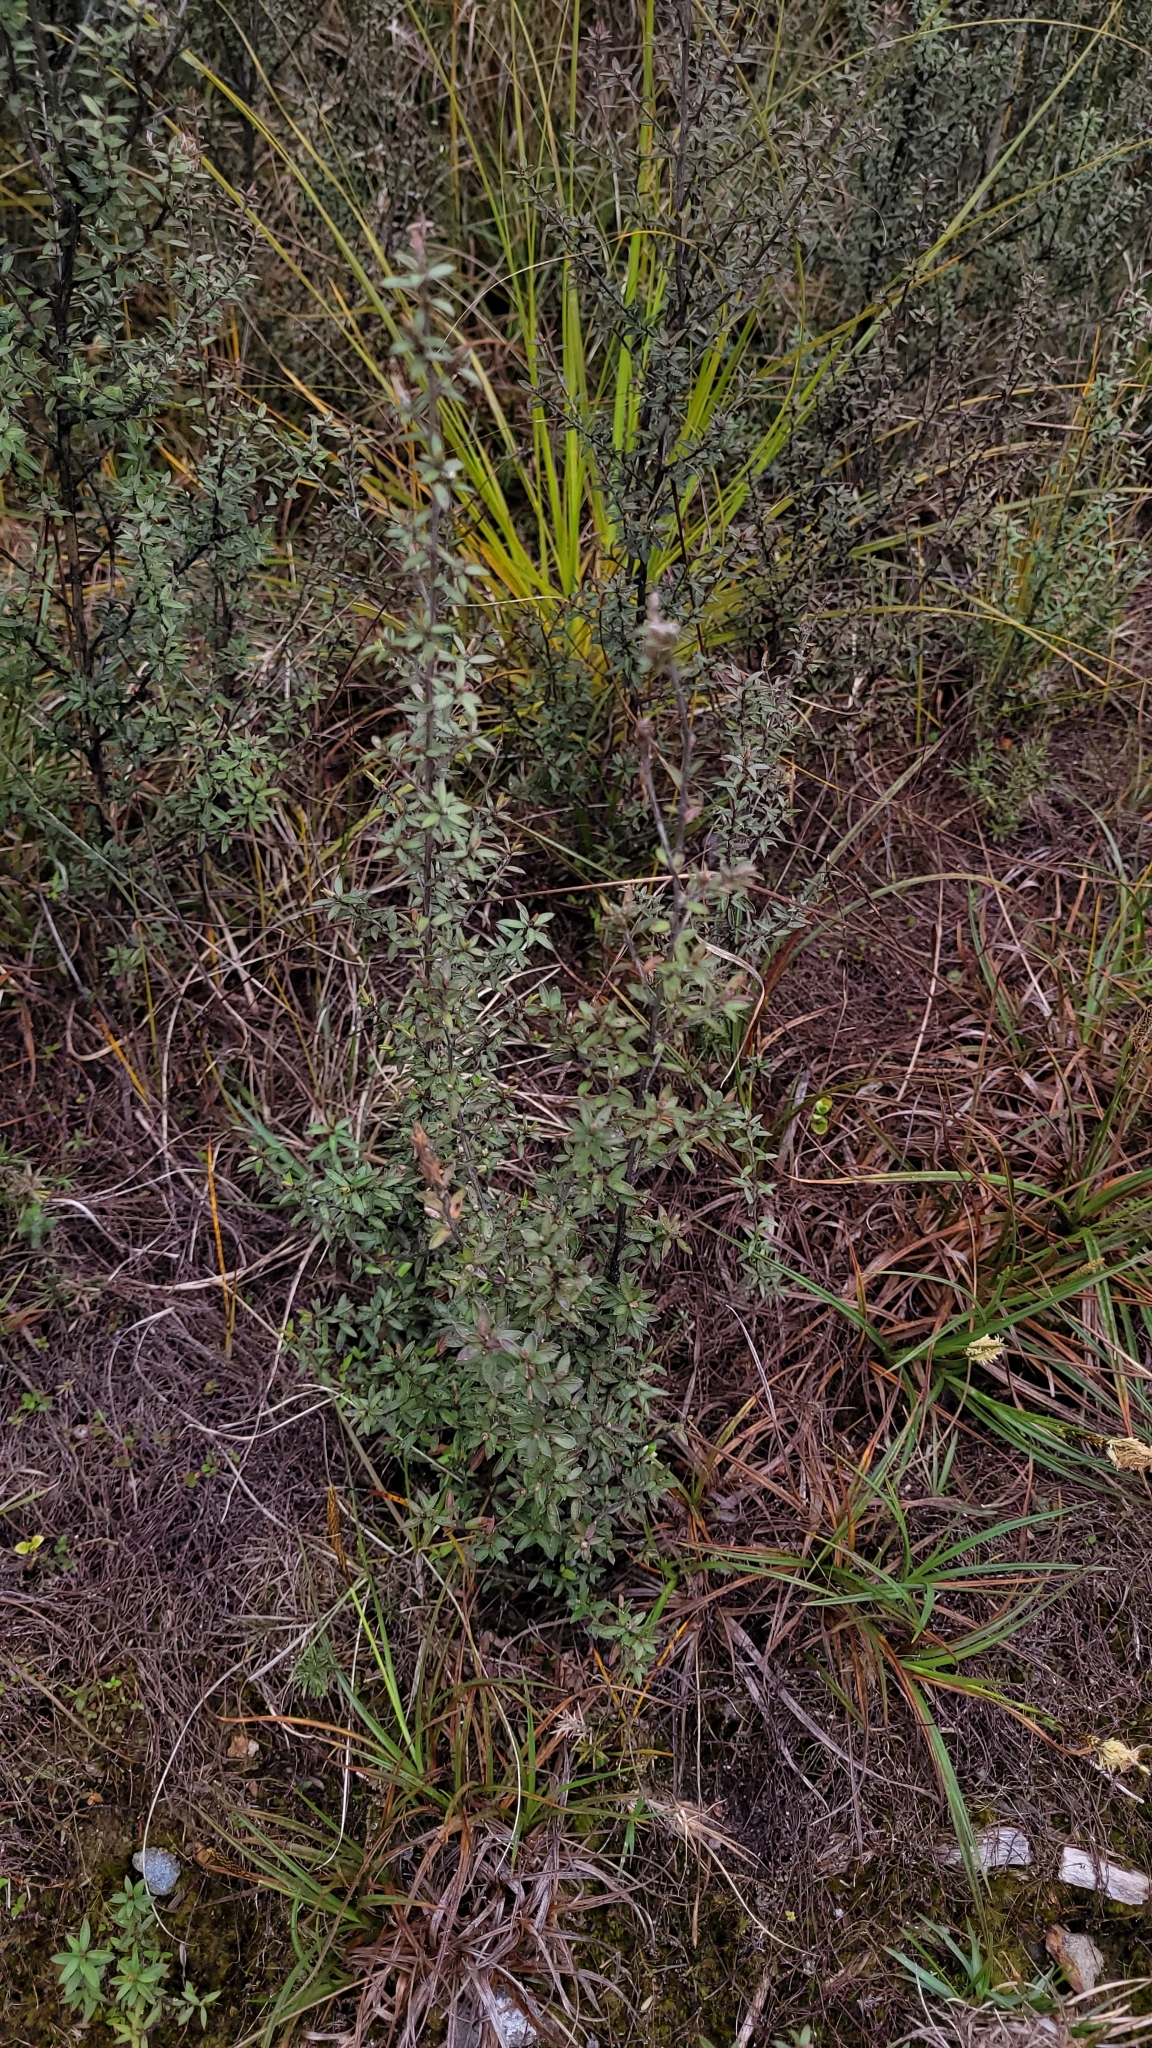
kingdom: Plantae
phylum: Tracheophyta
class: Magnoliopsida
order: Myrtales
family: Myrtaceae
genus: Leptospermum
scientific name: Leptospermum scoparium
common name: Broom tea-tree
